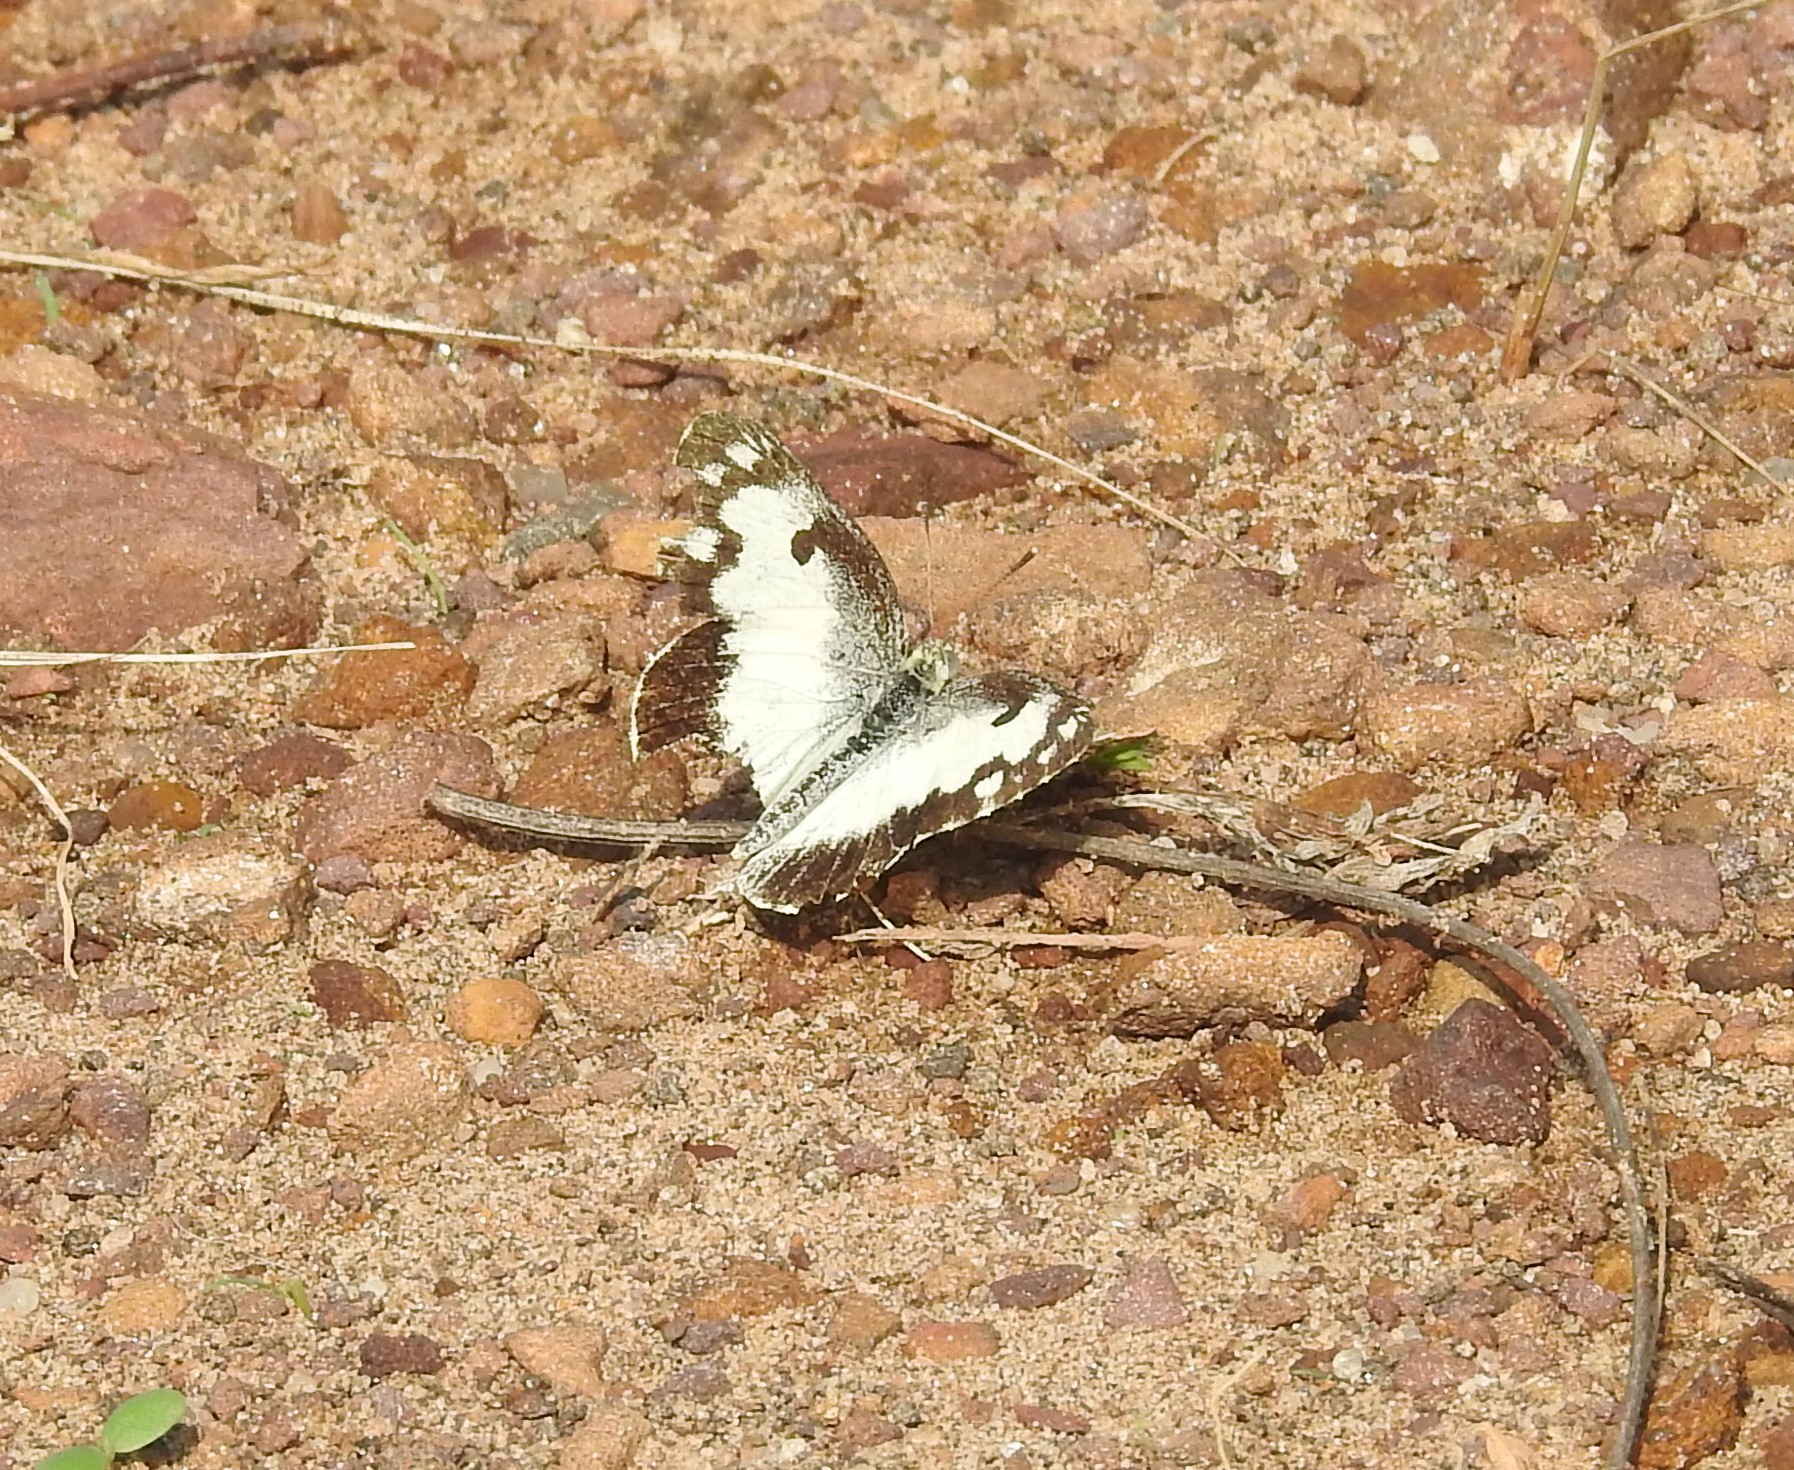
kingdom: Animalia
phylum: Arthropoda
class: Insecta
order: Lepidoptera
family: Pieridae
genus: Colotis
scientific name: Colotis phisadia
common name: Blue spotted arab
